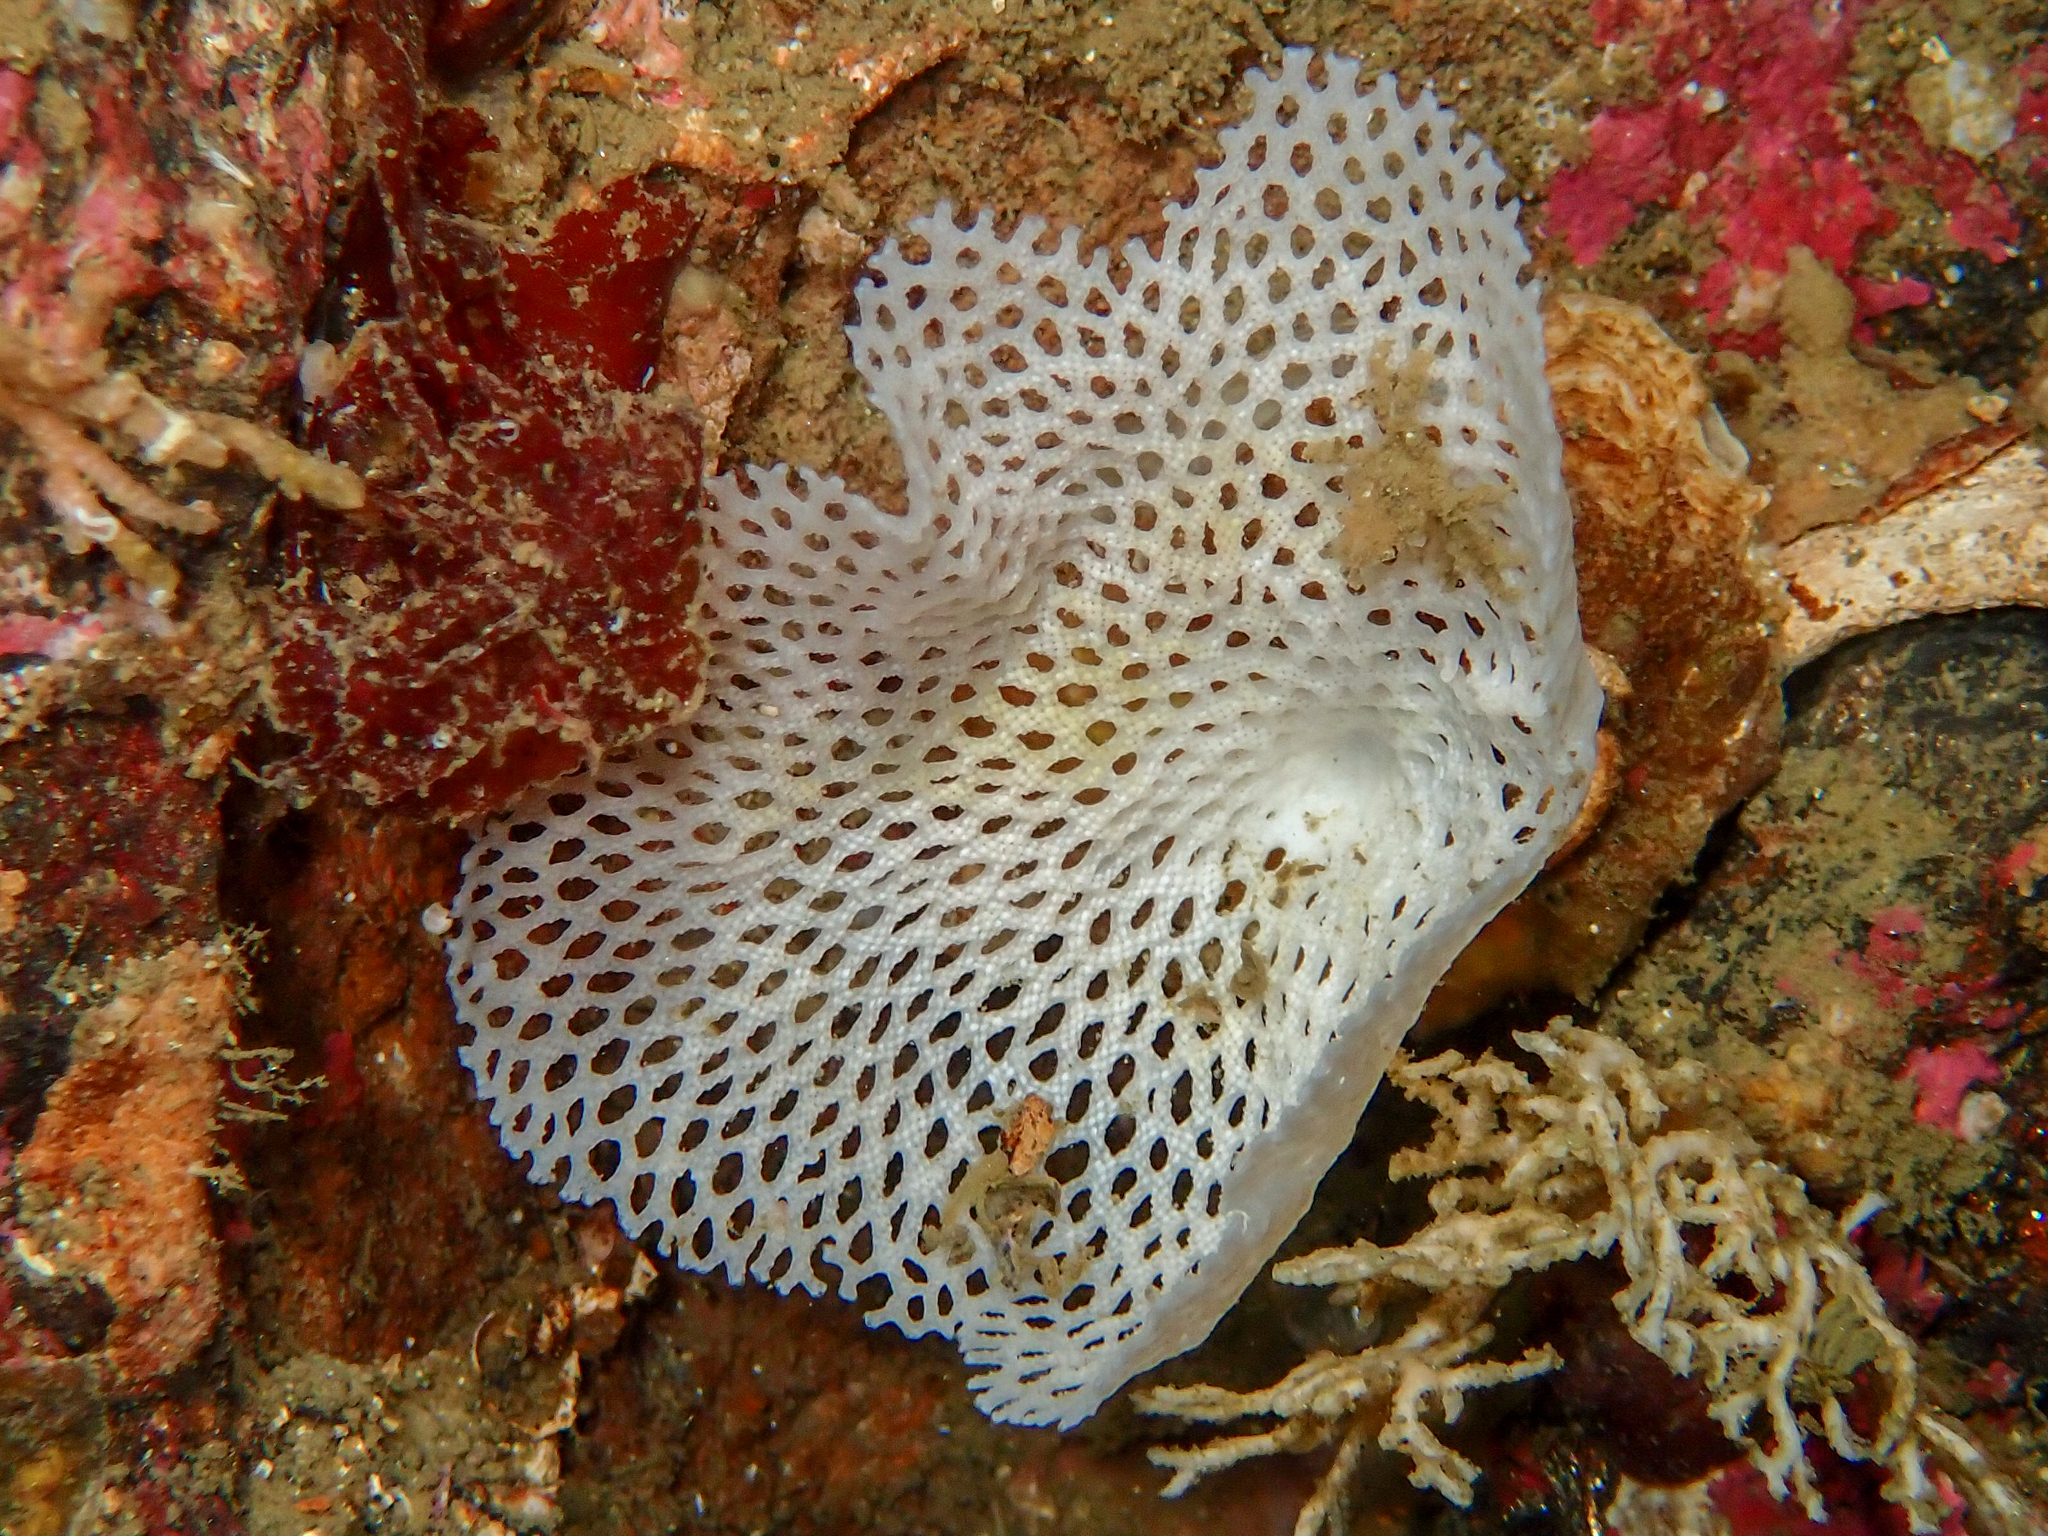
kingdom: Animalia
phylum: Bryozoa
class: Gymnolaemata
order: Cheilostomatida
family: Phidoloporidae
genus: Reteporella
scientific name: Reteporella
